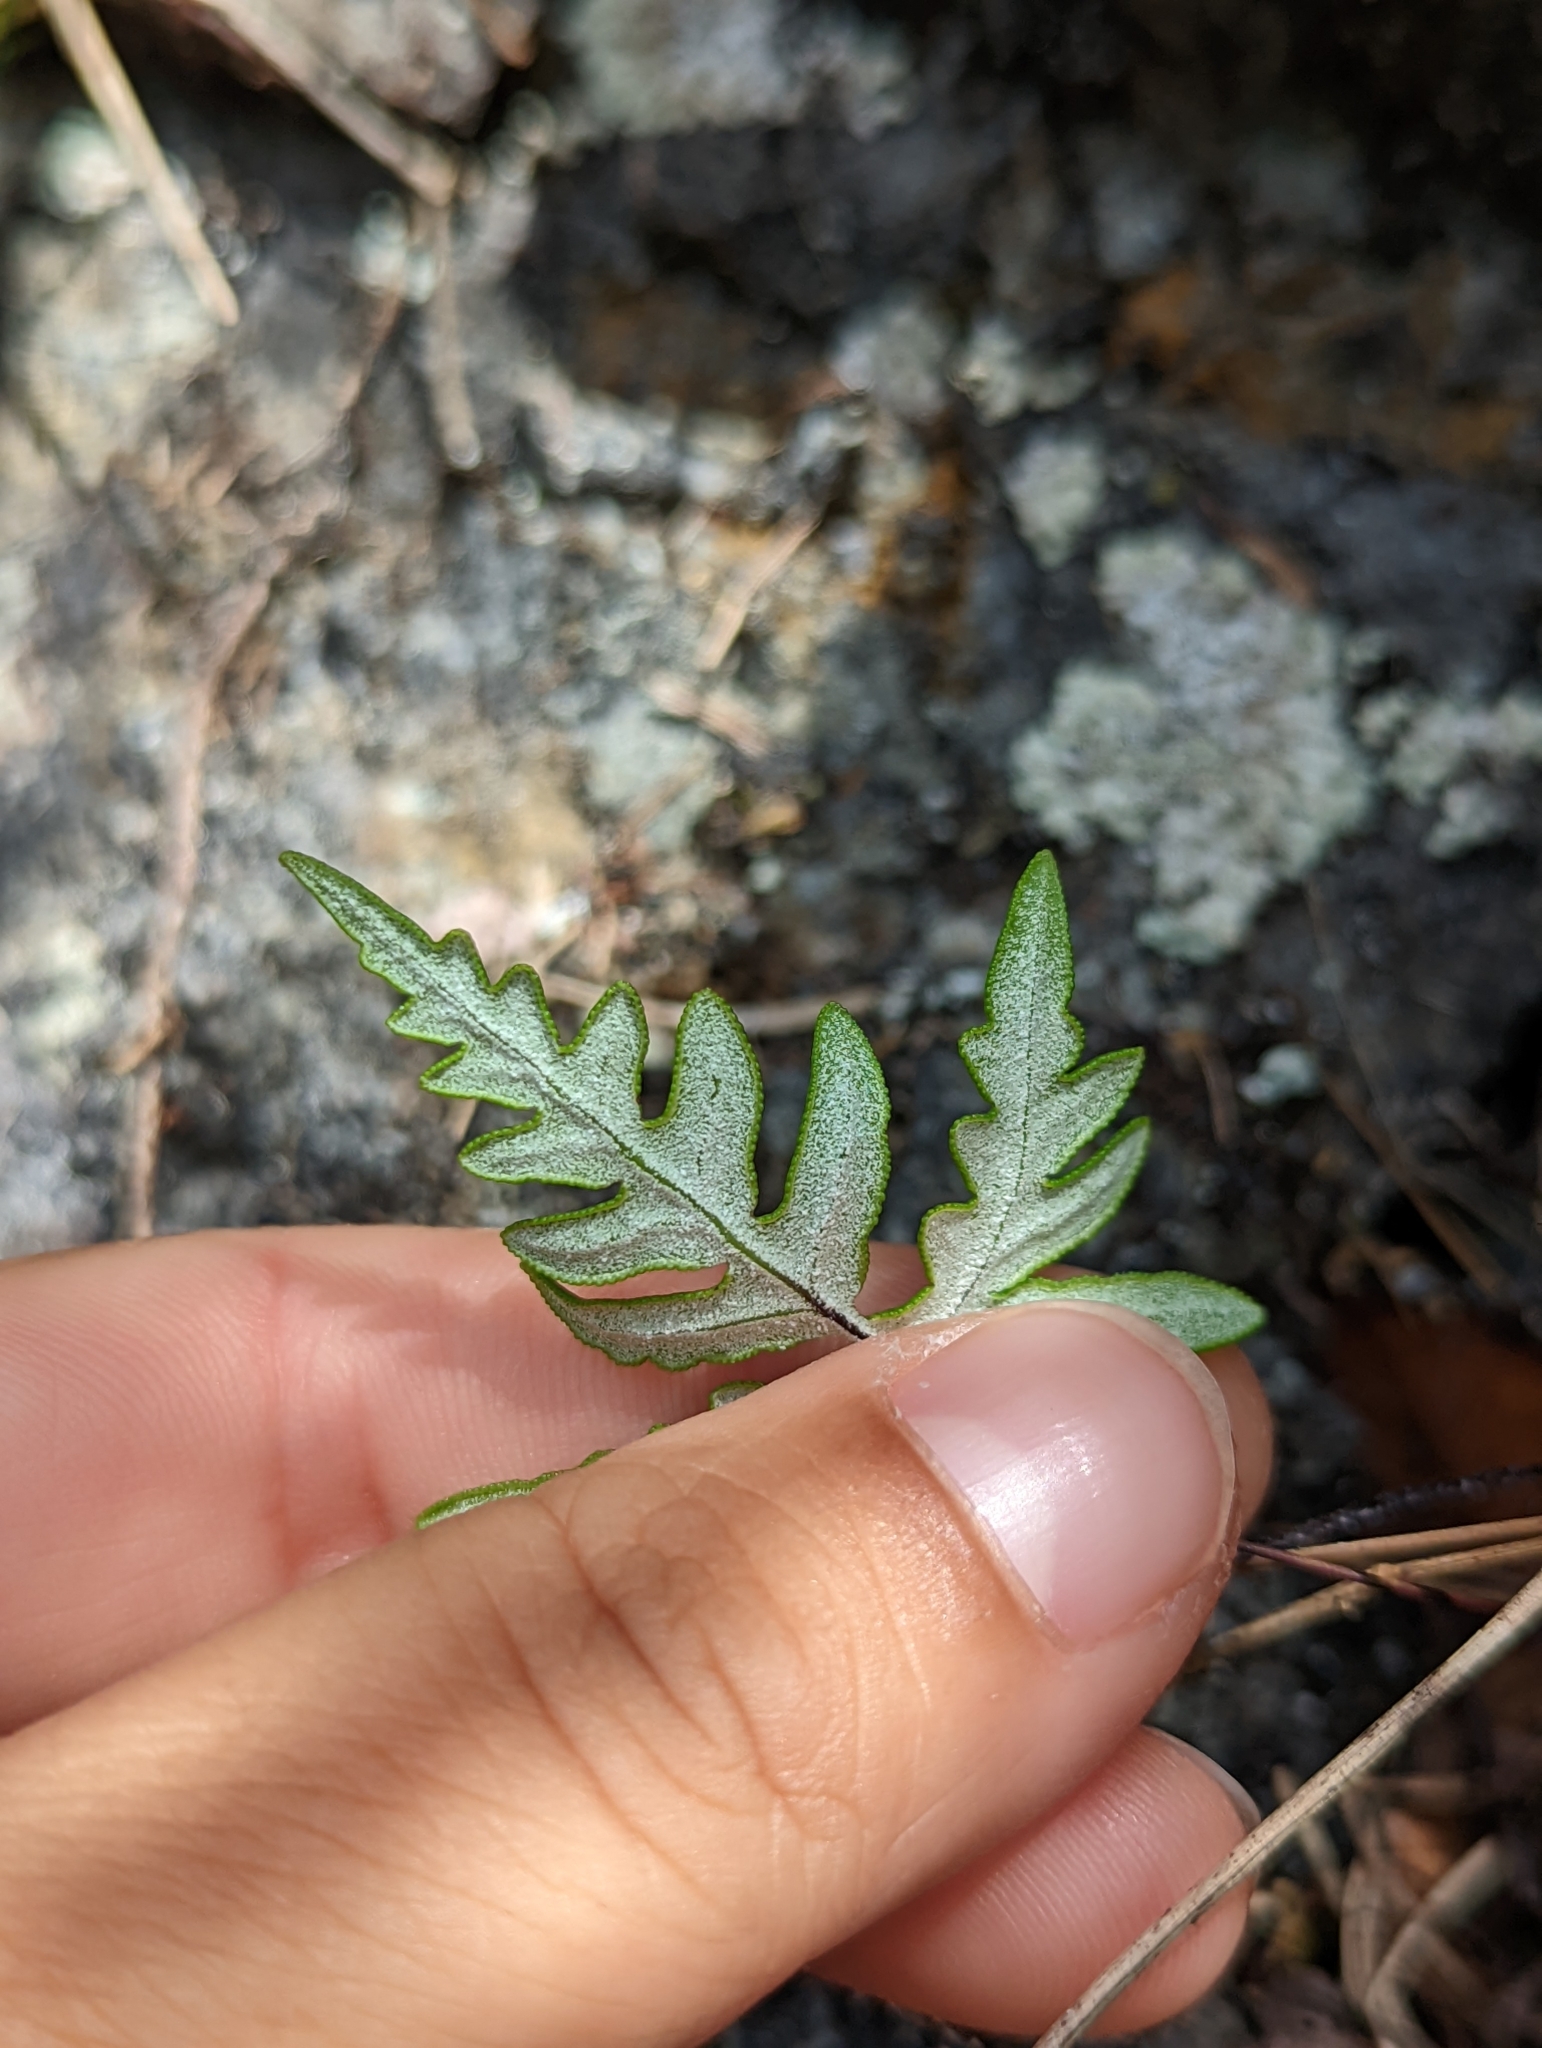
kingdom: Plantae
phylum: Tracheophyta
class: Polypodiopsida
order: Polypodiales
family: Pteridaceae
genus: Aleuritopteris
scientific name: Aleuritopteris argentea
